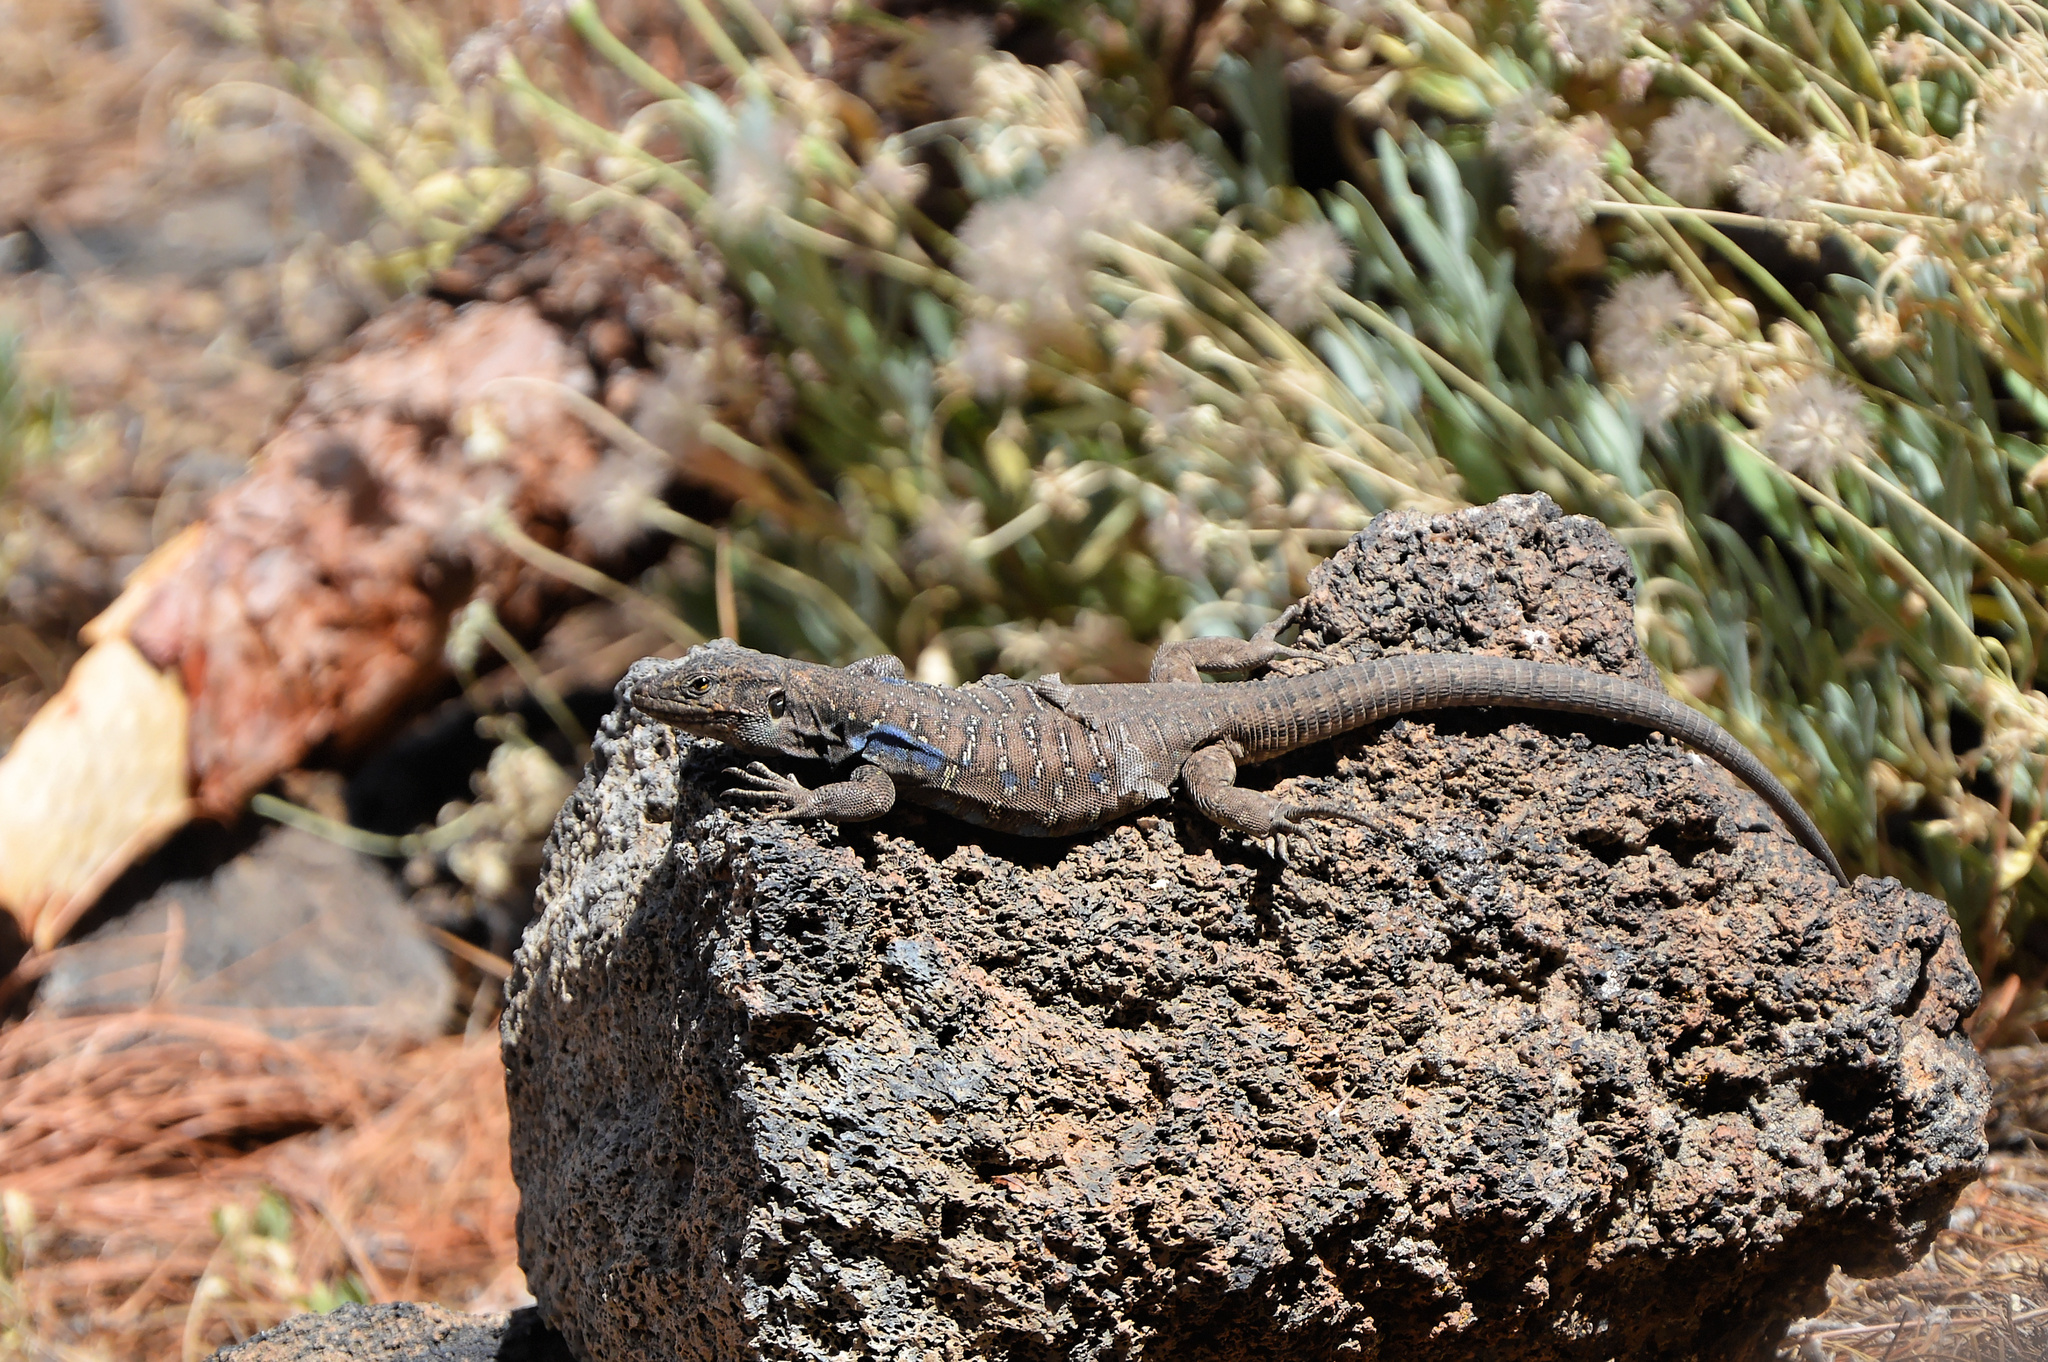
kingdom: Animalia
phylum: Chordata
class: Squamata
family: Lacertidae
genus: Gallotia
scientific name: Gallotia galloti
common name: Gallot's lizard
